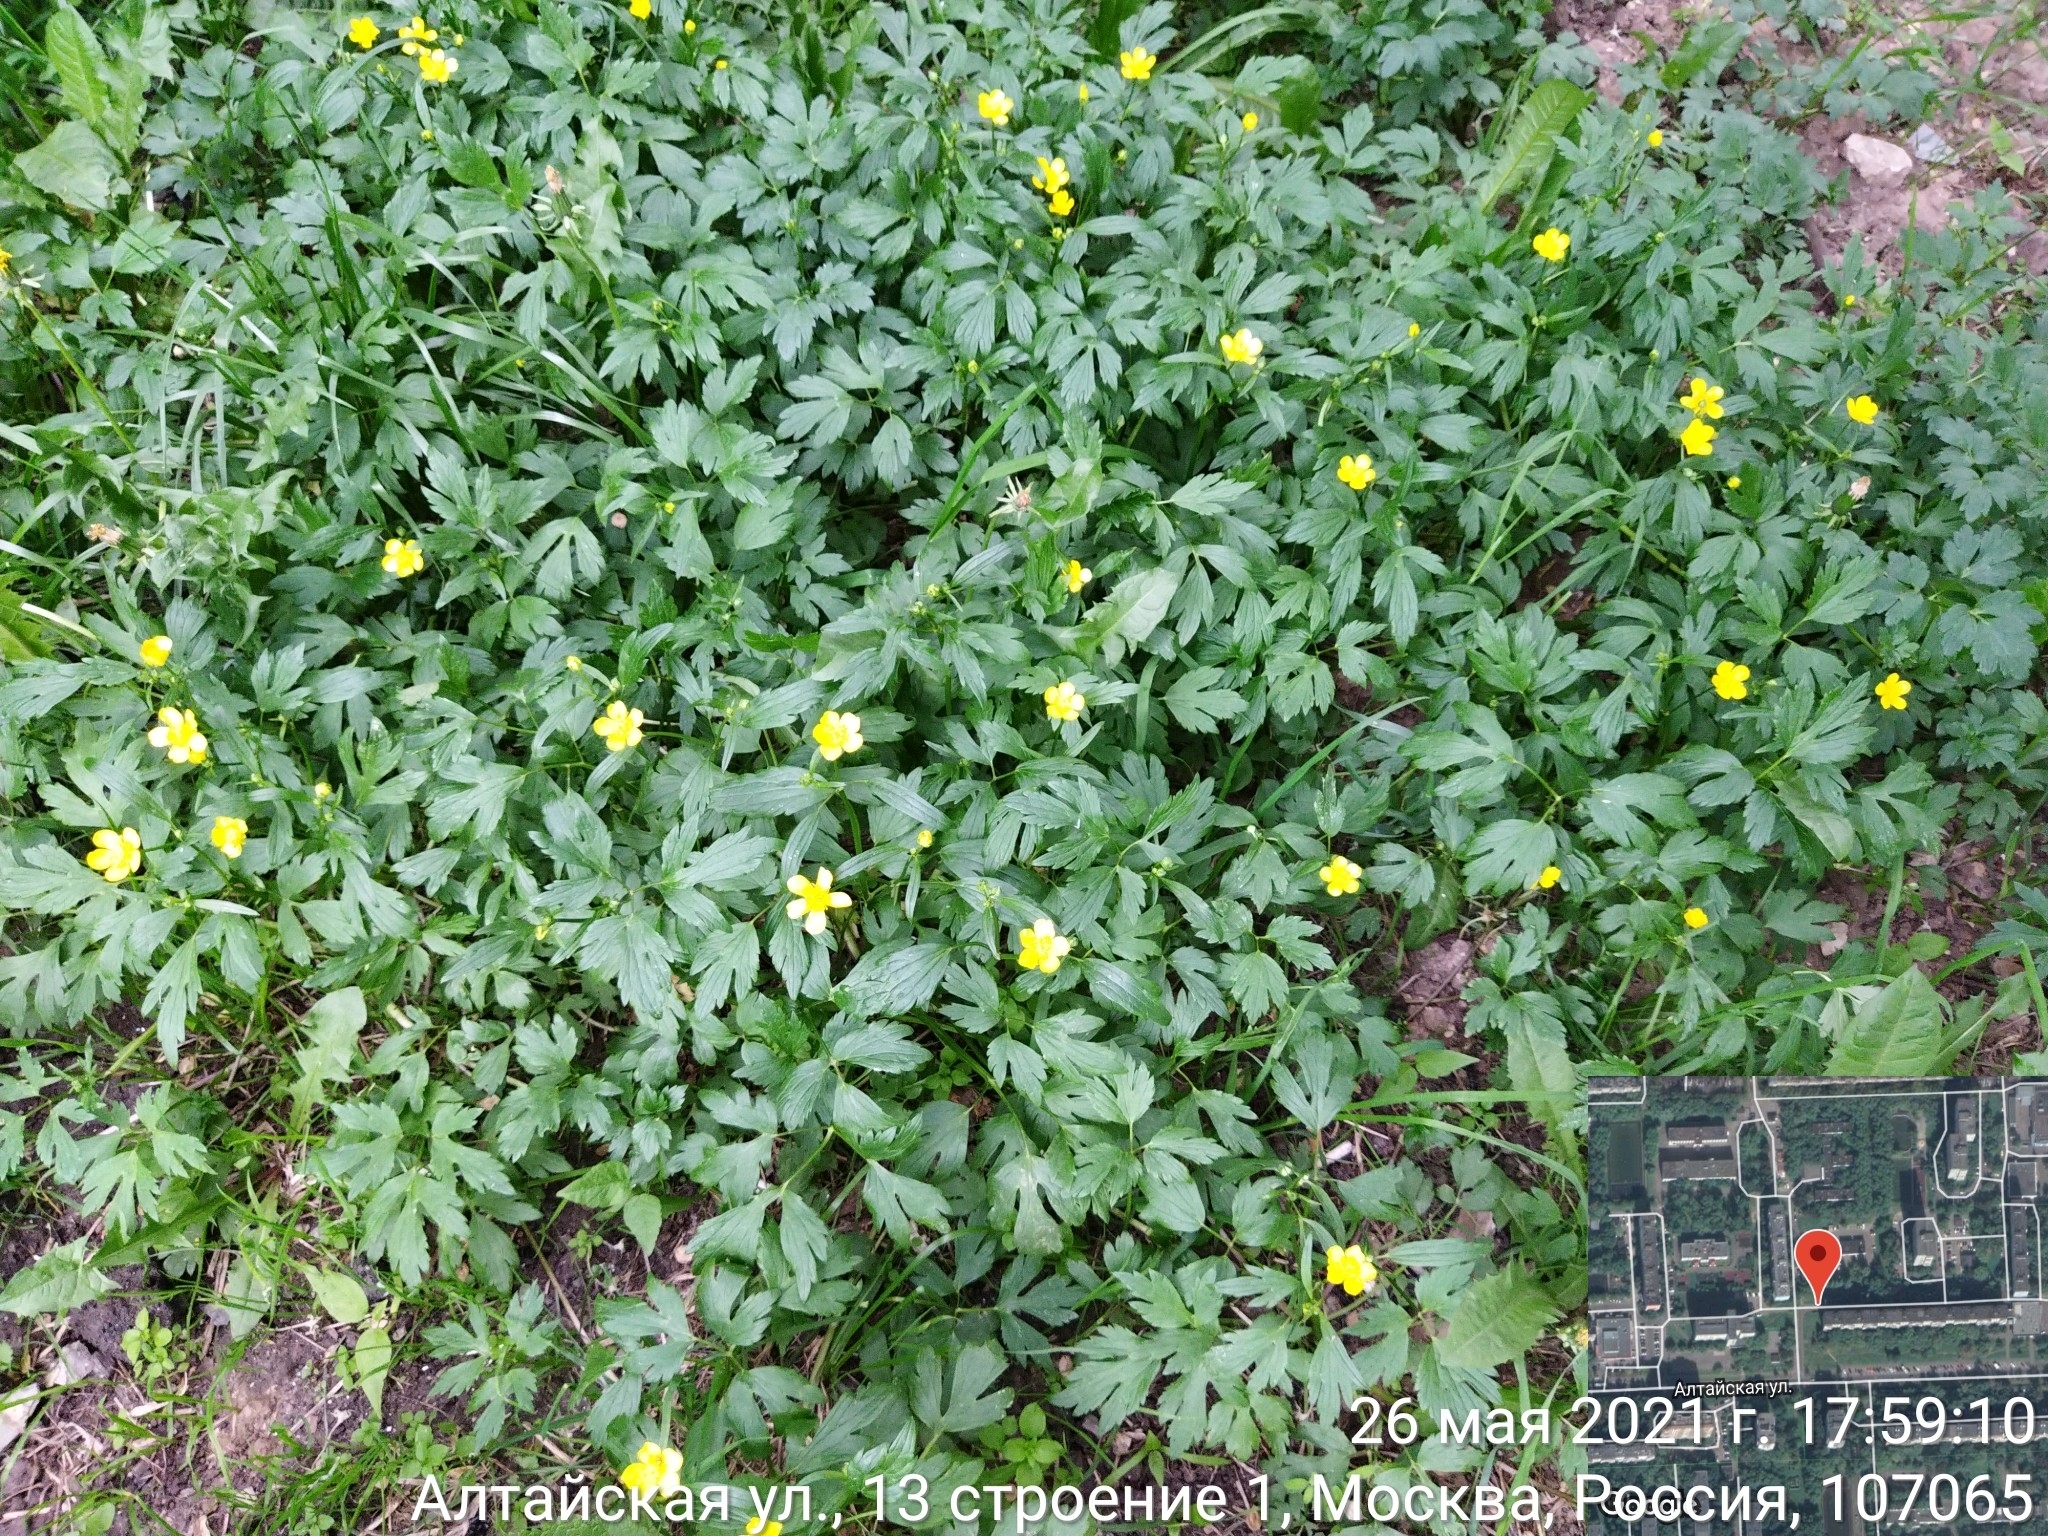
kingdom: Plantae
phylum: Tracheophyta
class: Magnoliopsida
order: Ranunculales
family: Ranunculaceae
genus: Ranunculus
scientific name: Ranunculus repens
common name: Creeping buttercup
